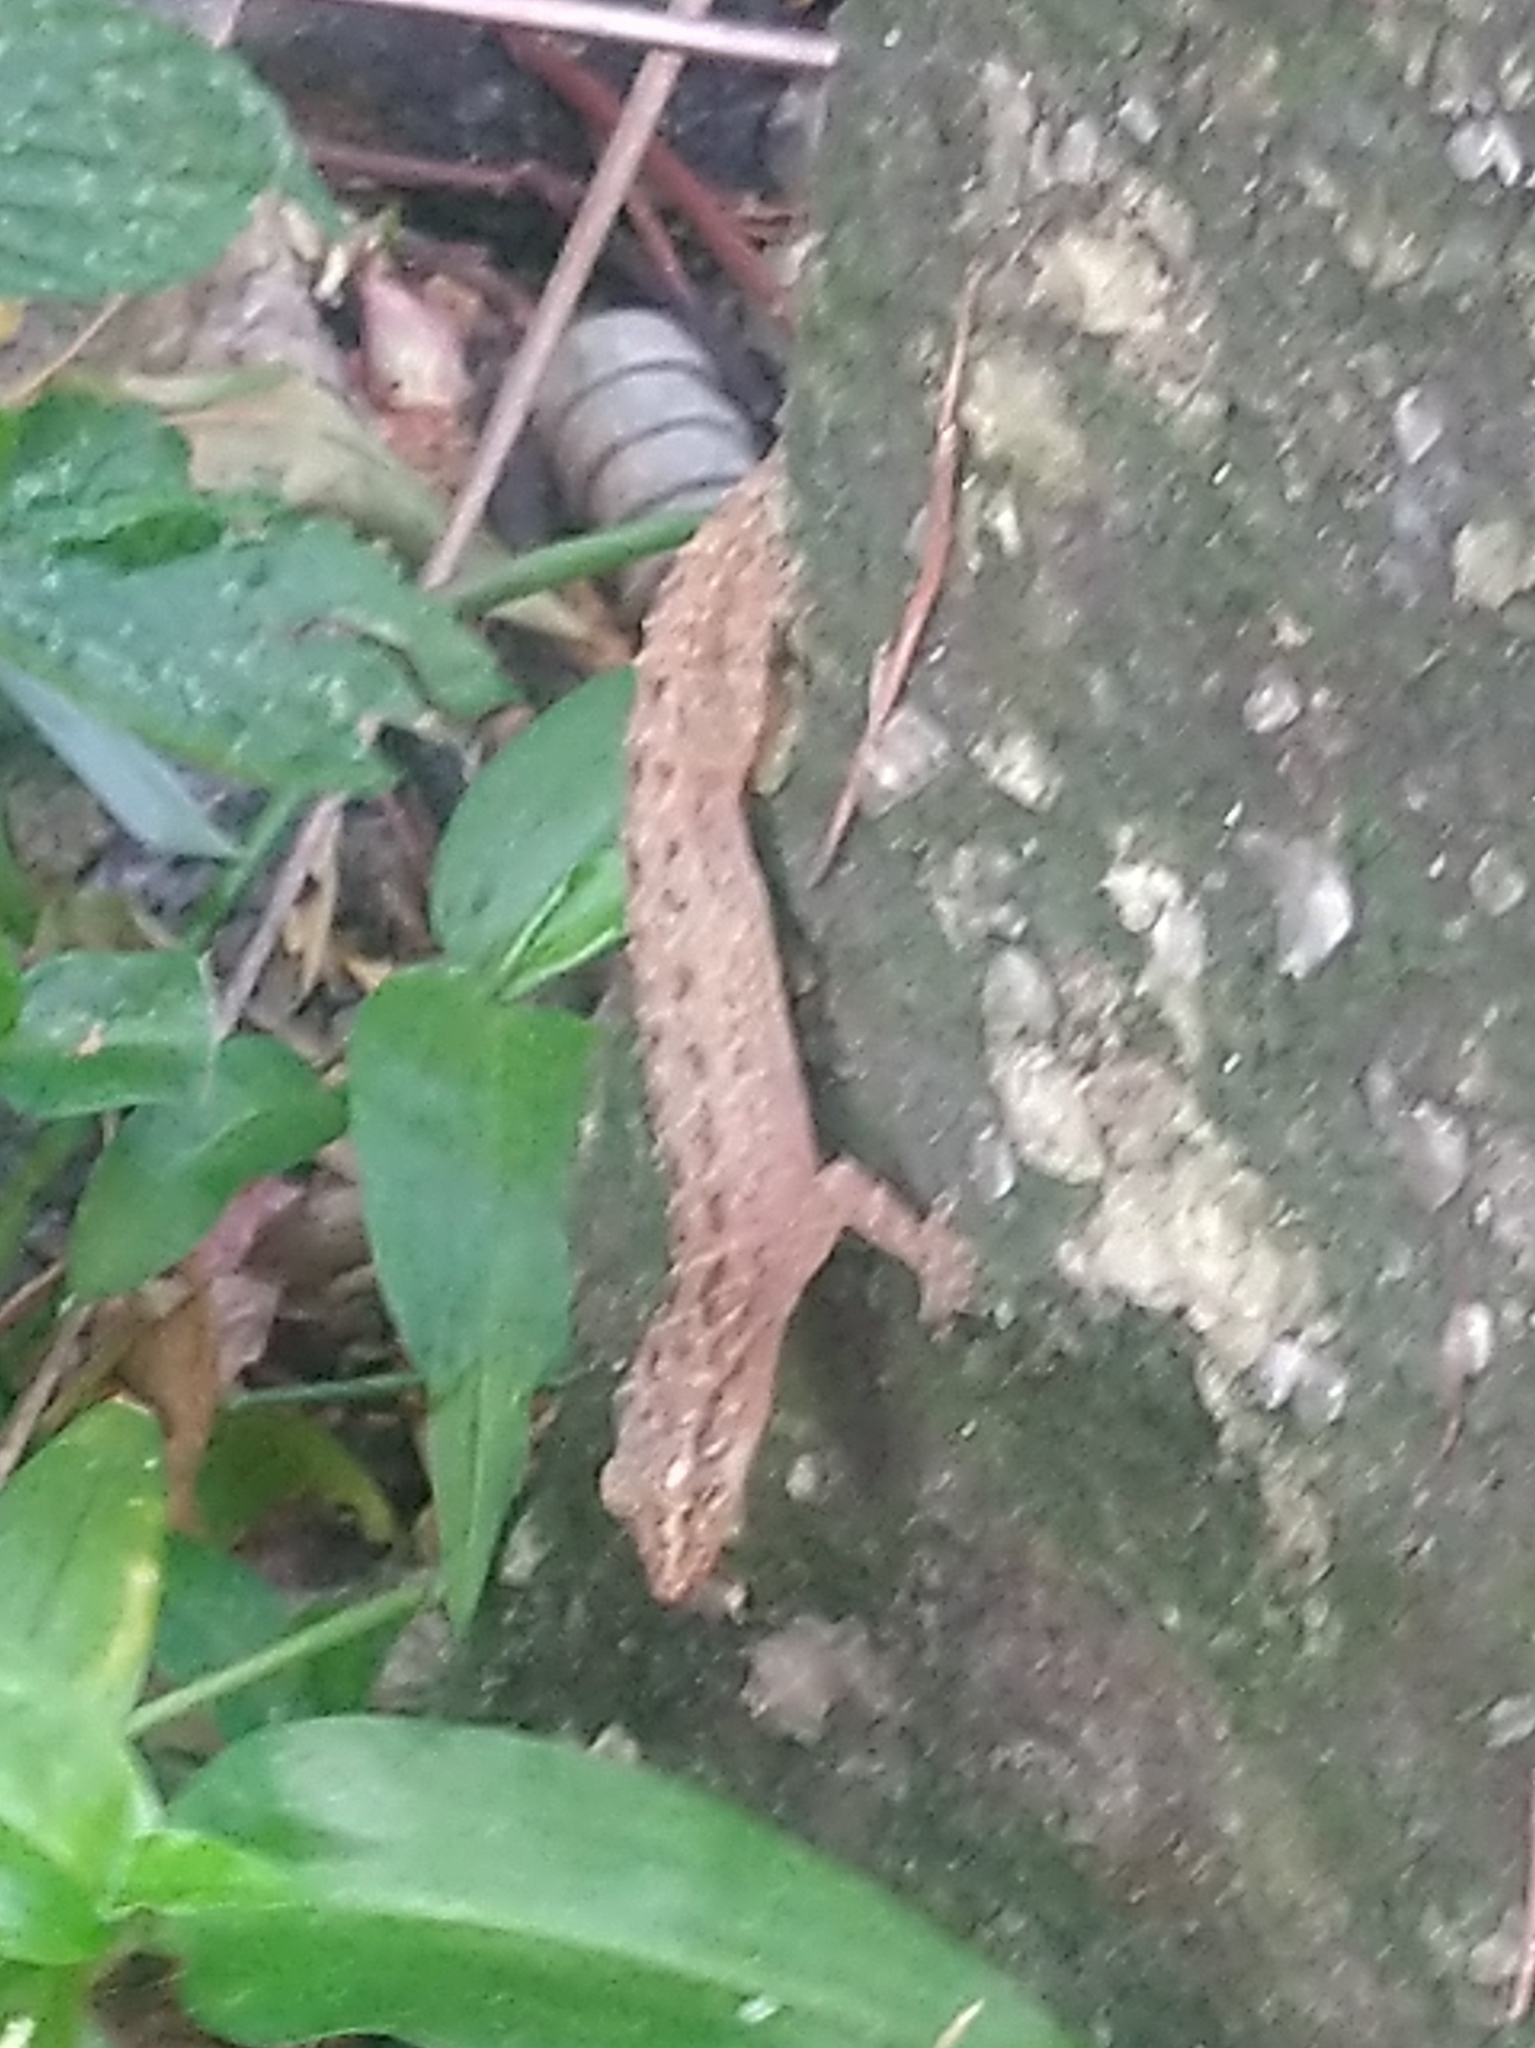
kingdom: Animalia
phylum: Chordata
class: Squamata
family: Gekkonidae
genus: Hemidactylus
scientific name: Hemidactylus frenatus
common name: Common house gecko
